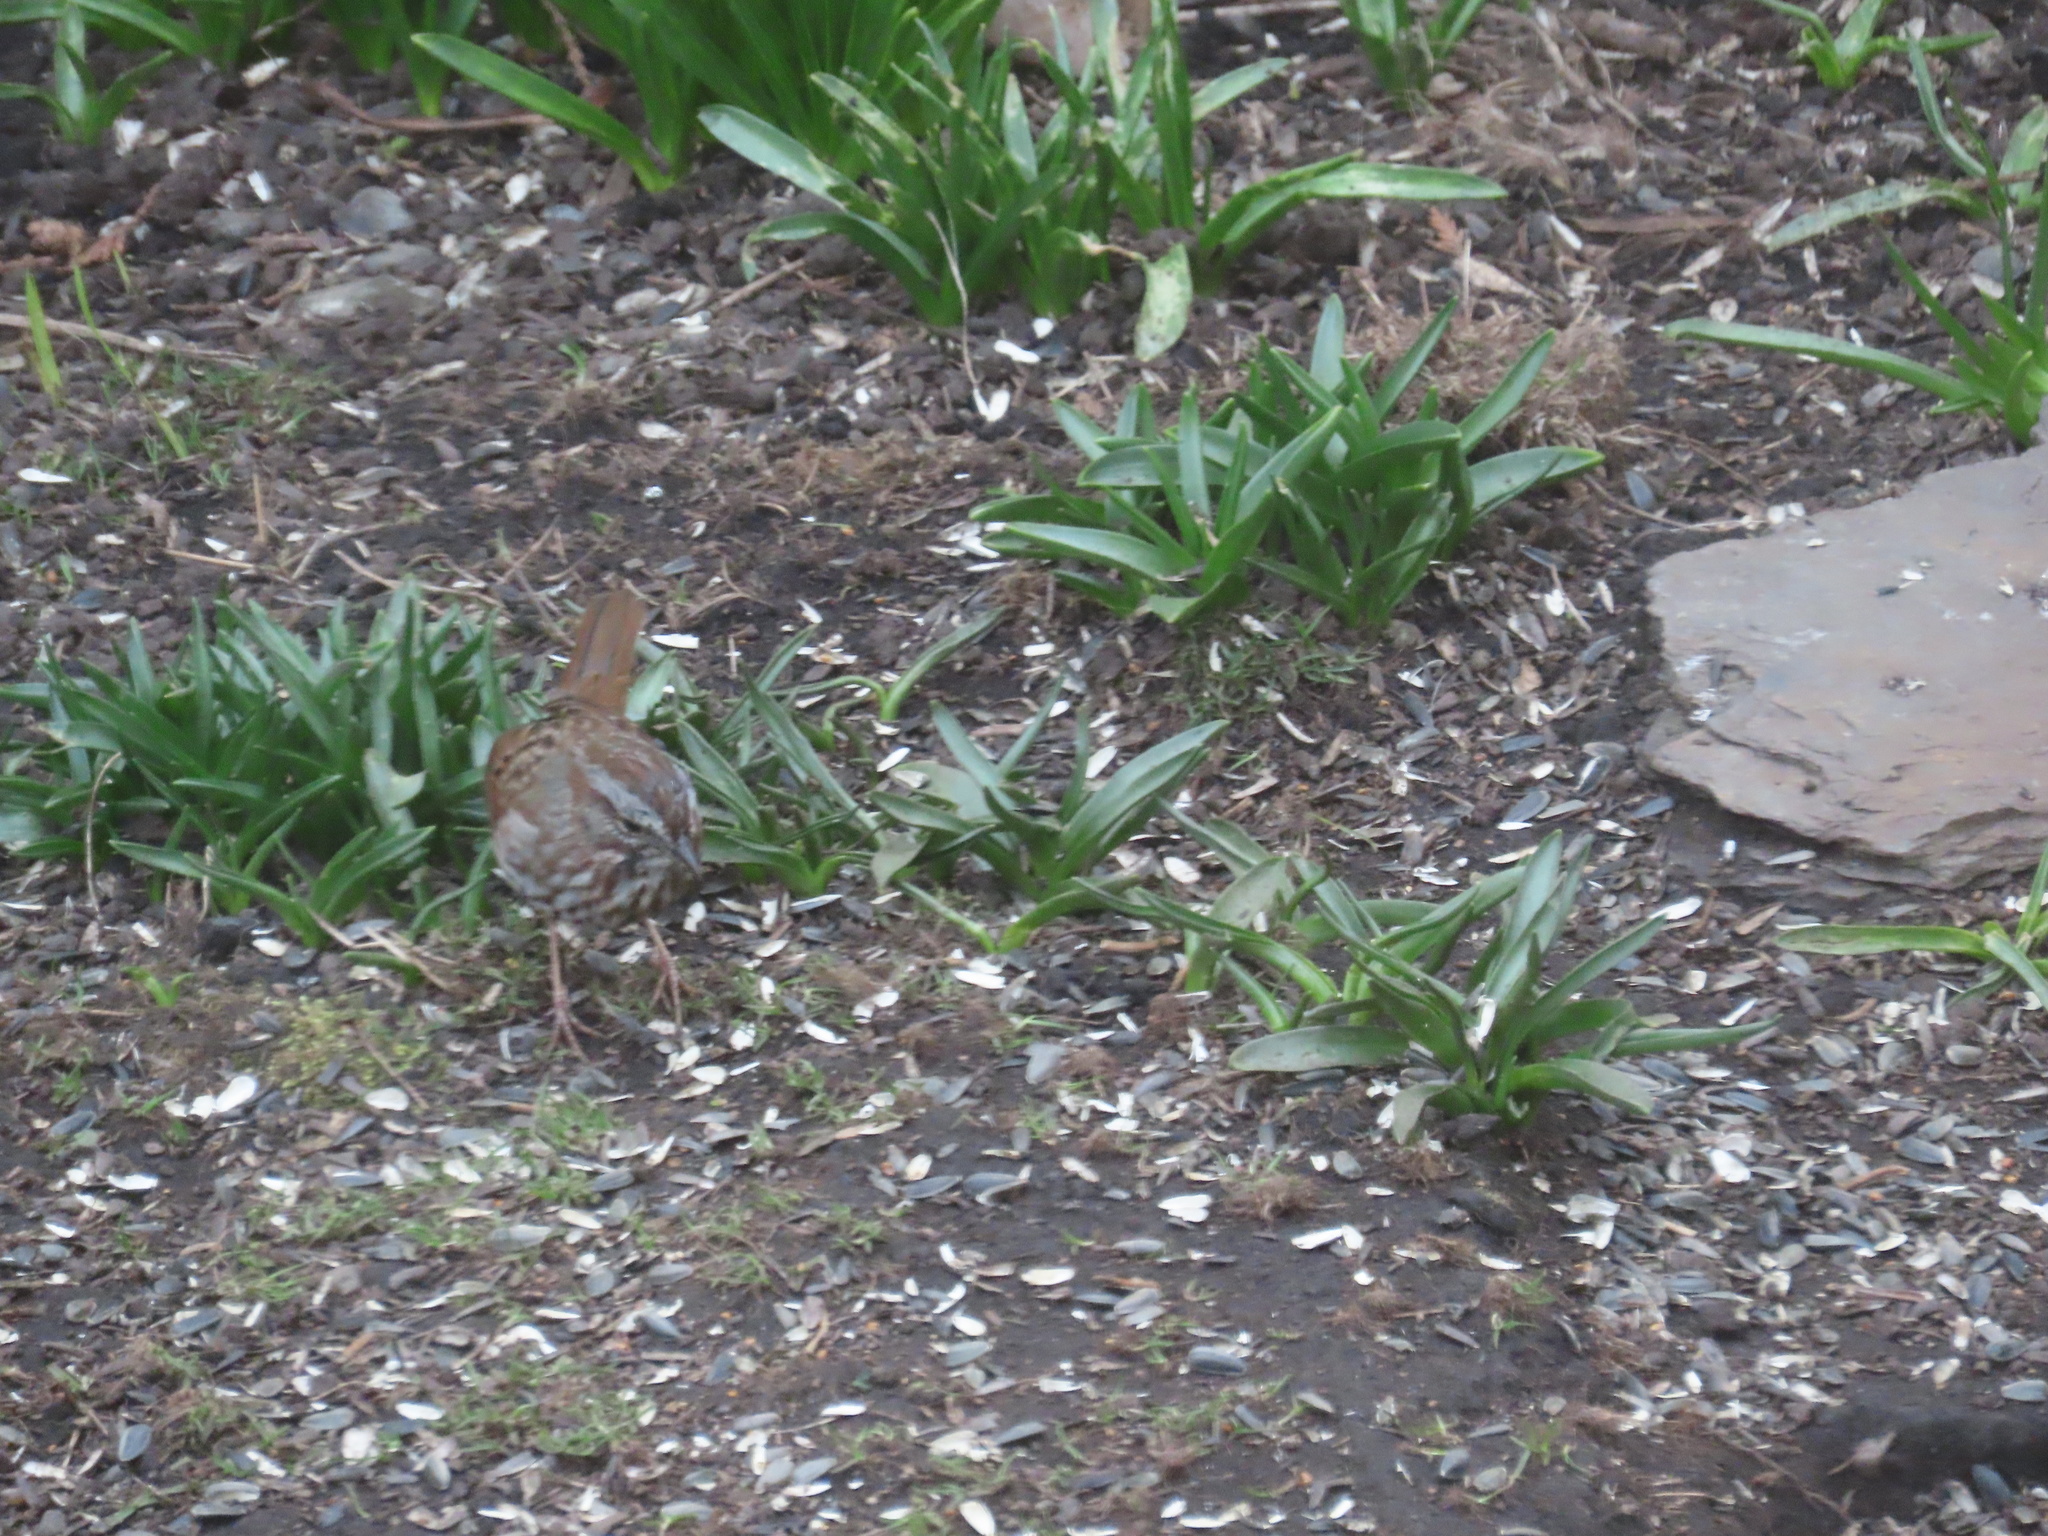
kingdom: Animalia
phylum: Chordata
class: Aves
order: Passeriformes
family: Passerellidae
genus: Melospiza
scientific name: Melospiza melodia
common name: Song sparrow
